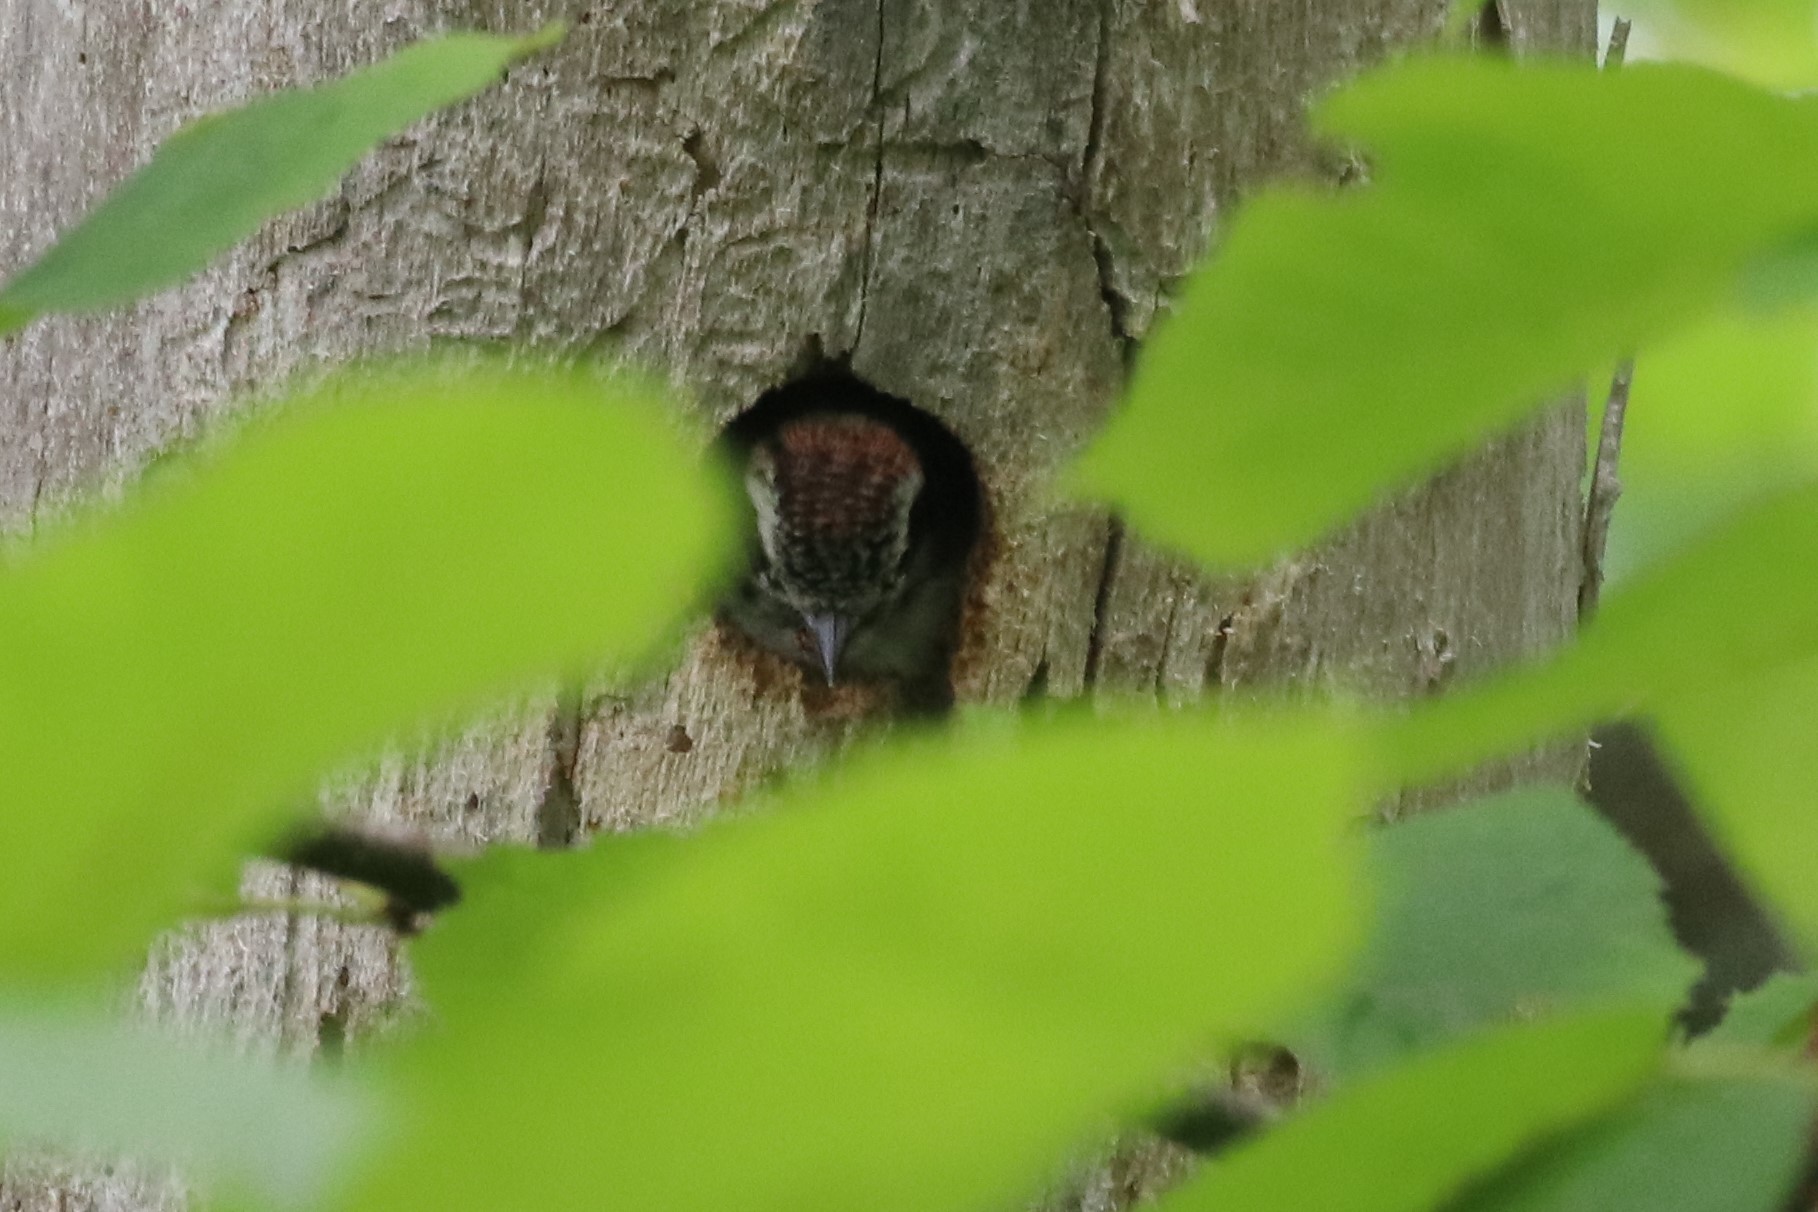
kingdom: Animalia
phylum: Chordata
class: Aves
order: Piciformes
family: Picidae
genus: Dryobates
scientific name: Dryobates pubescens
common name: Downy woodpecker
